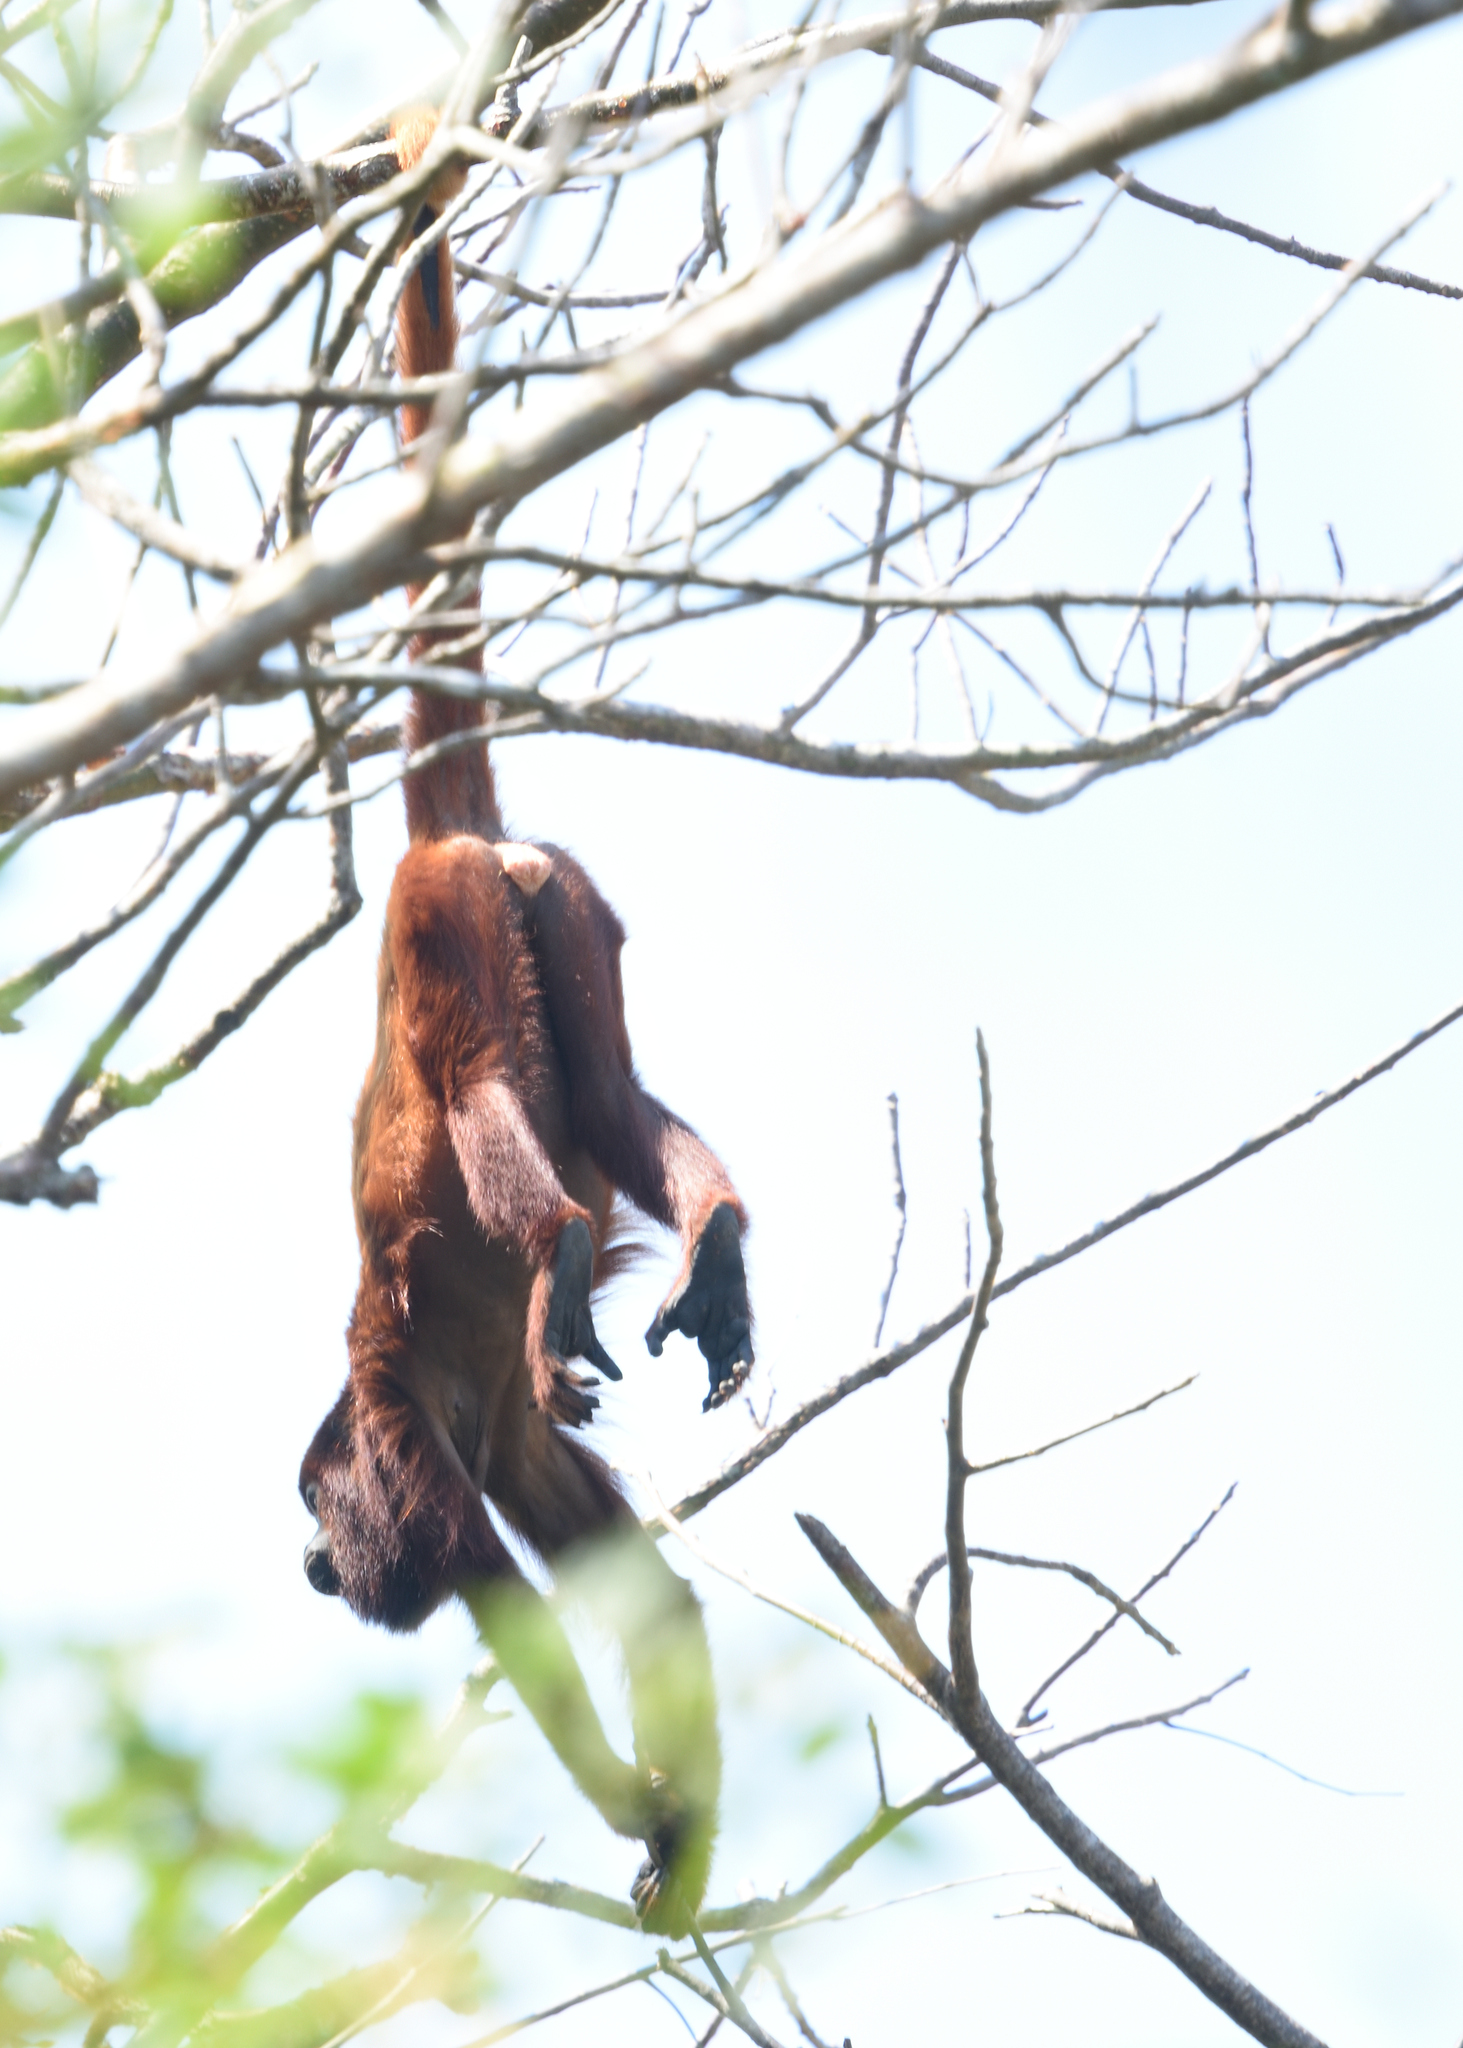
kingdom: Animalia
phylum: Chordata
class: Mammalia
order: Primates
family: Atelidae
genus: Alouatta
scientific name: Alouatta seniculus
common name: Venezuelan red howler
